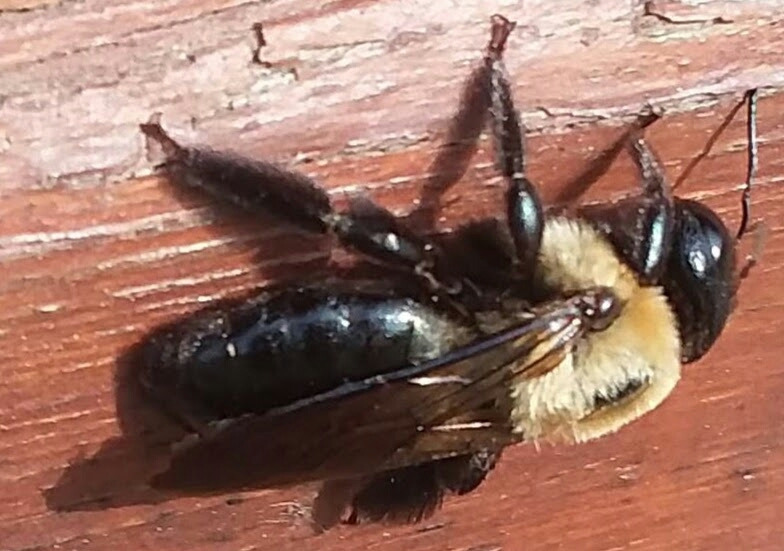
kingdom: Animalia
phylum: Arthropoda
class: Insecta
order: Hymenoptera
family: Apidae
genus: Xylocopa
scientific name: Xylocopa virginica
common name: Carpenter bee
